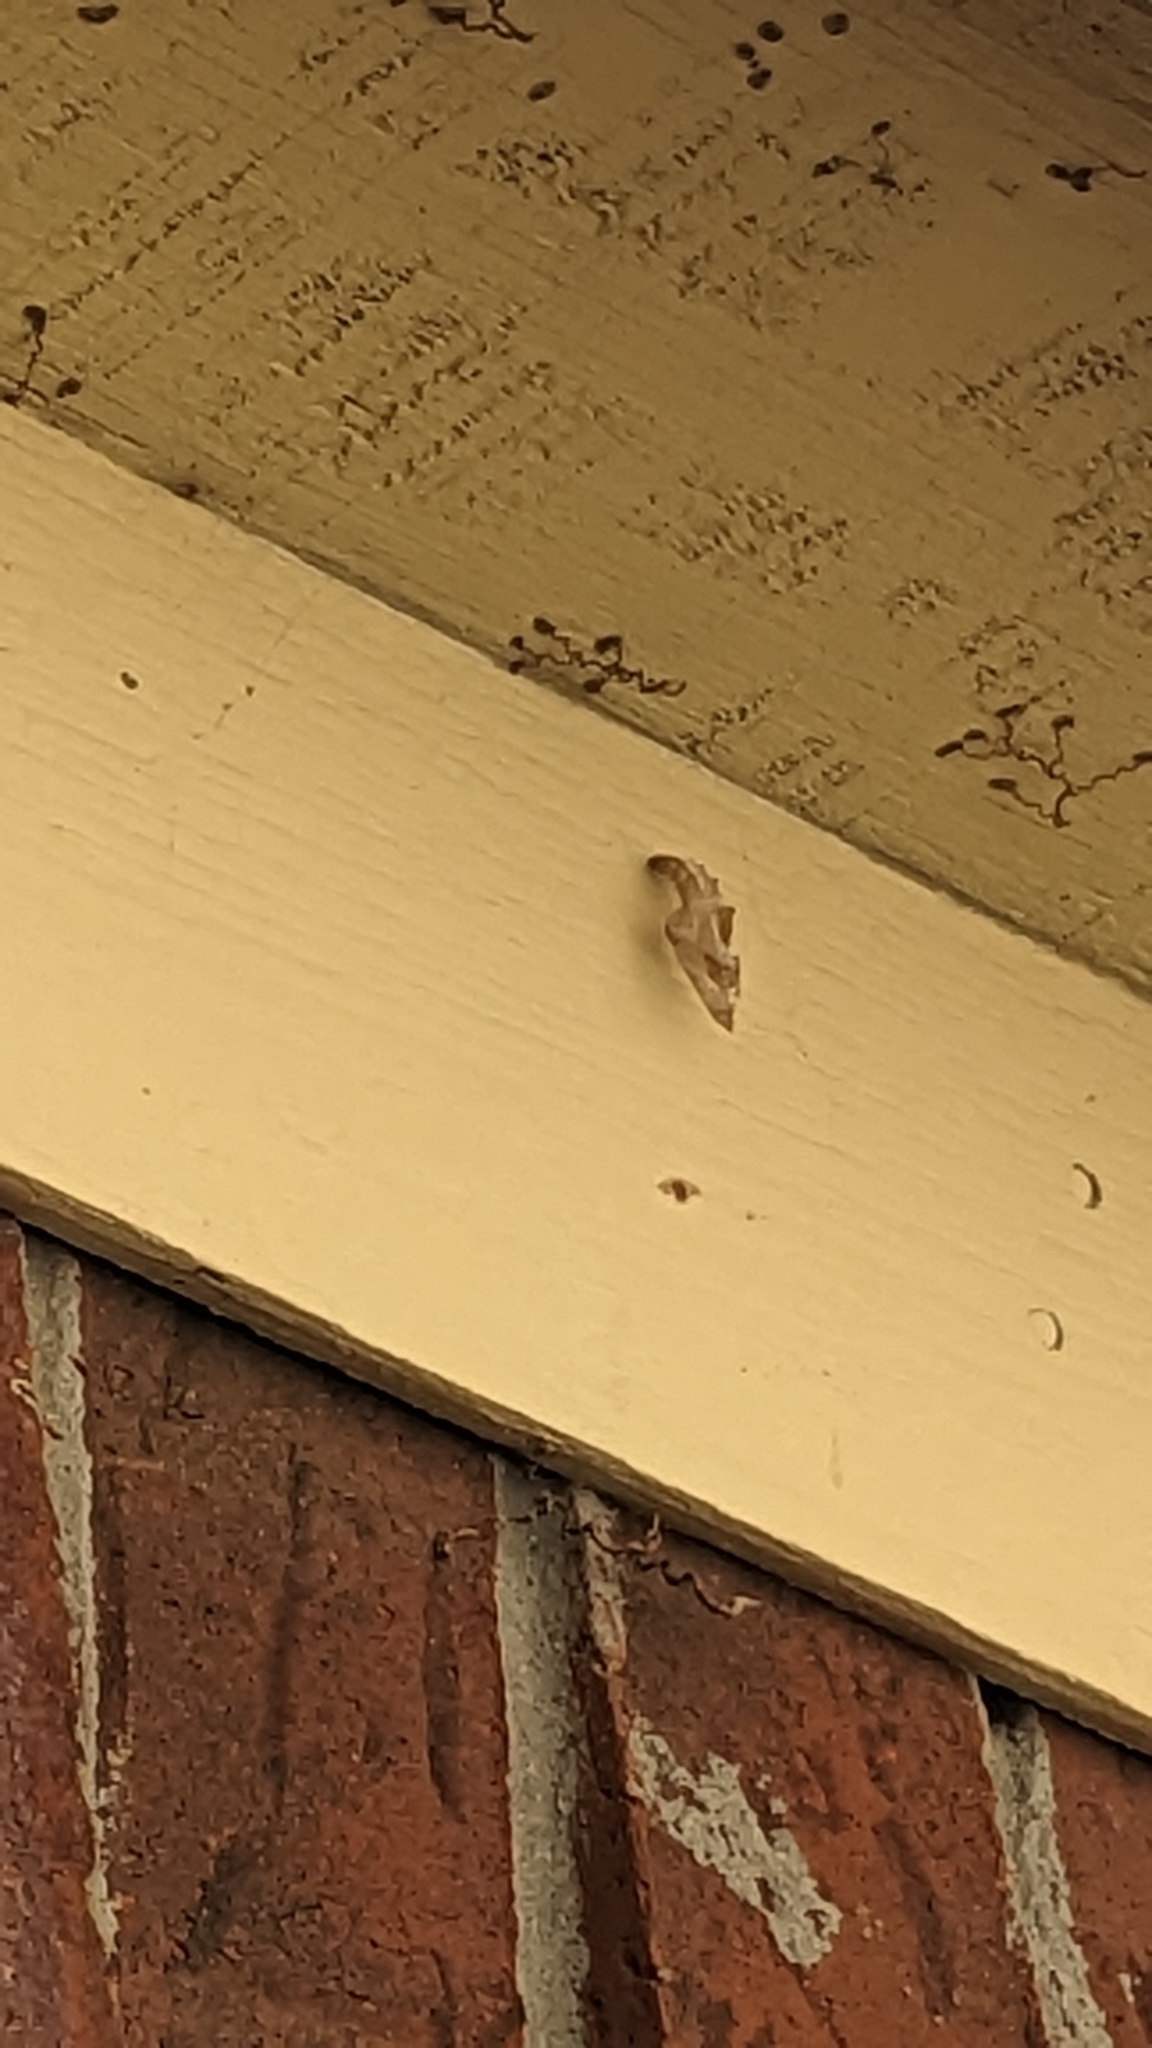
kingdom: Animalia
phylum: Arthropoda
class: Insecta
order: Lepidoptera
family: Nymphalidae
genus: Dione
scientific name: Dione vanillae
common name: Gulf fritillary
